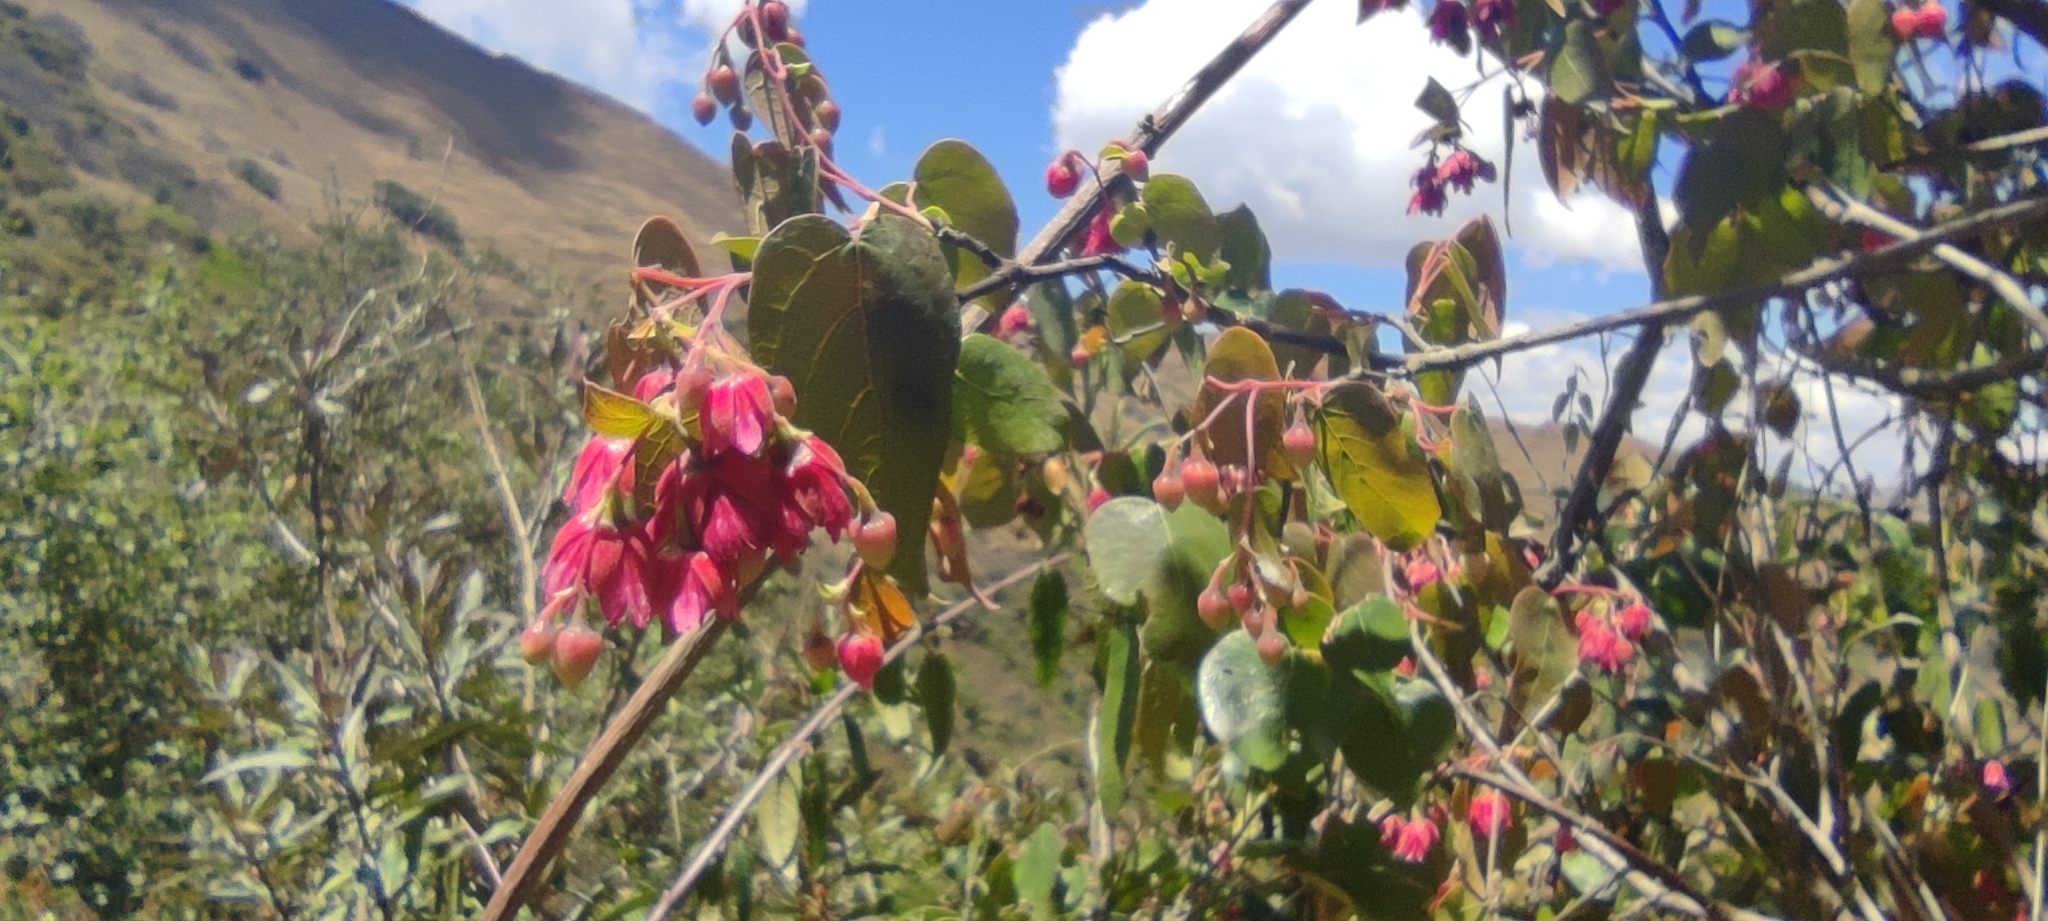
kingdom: Plantae
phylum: Tracheophyta
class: Magnoliopsida
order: Oxalidales
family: Elaeocarpaceae
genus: Vallea
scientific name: Vallea stipularis
